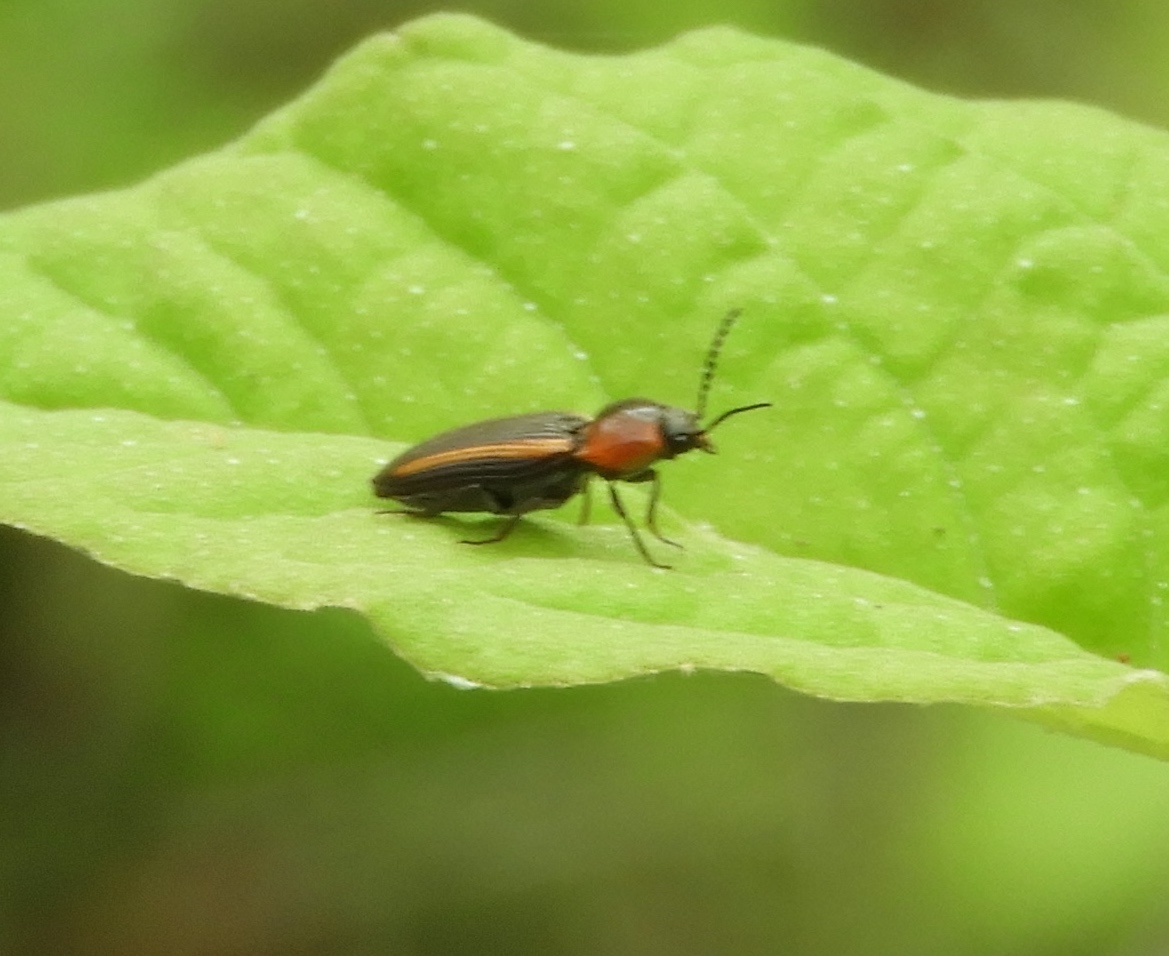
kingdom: Animalia
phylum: Arthropoda
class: Insecta
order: Coleoptera
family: Elateridae
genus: Cardiophorus
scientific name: Cardiophorus
